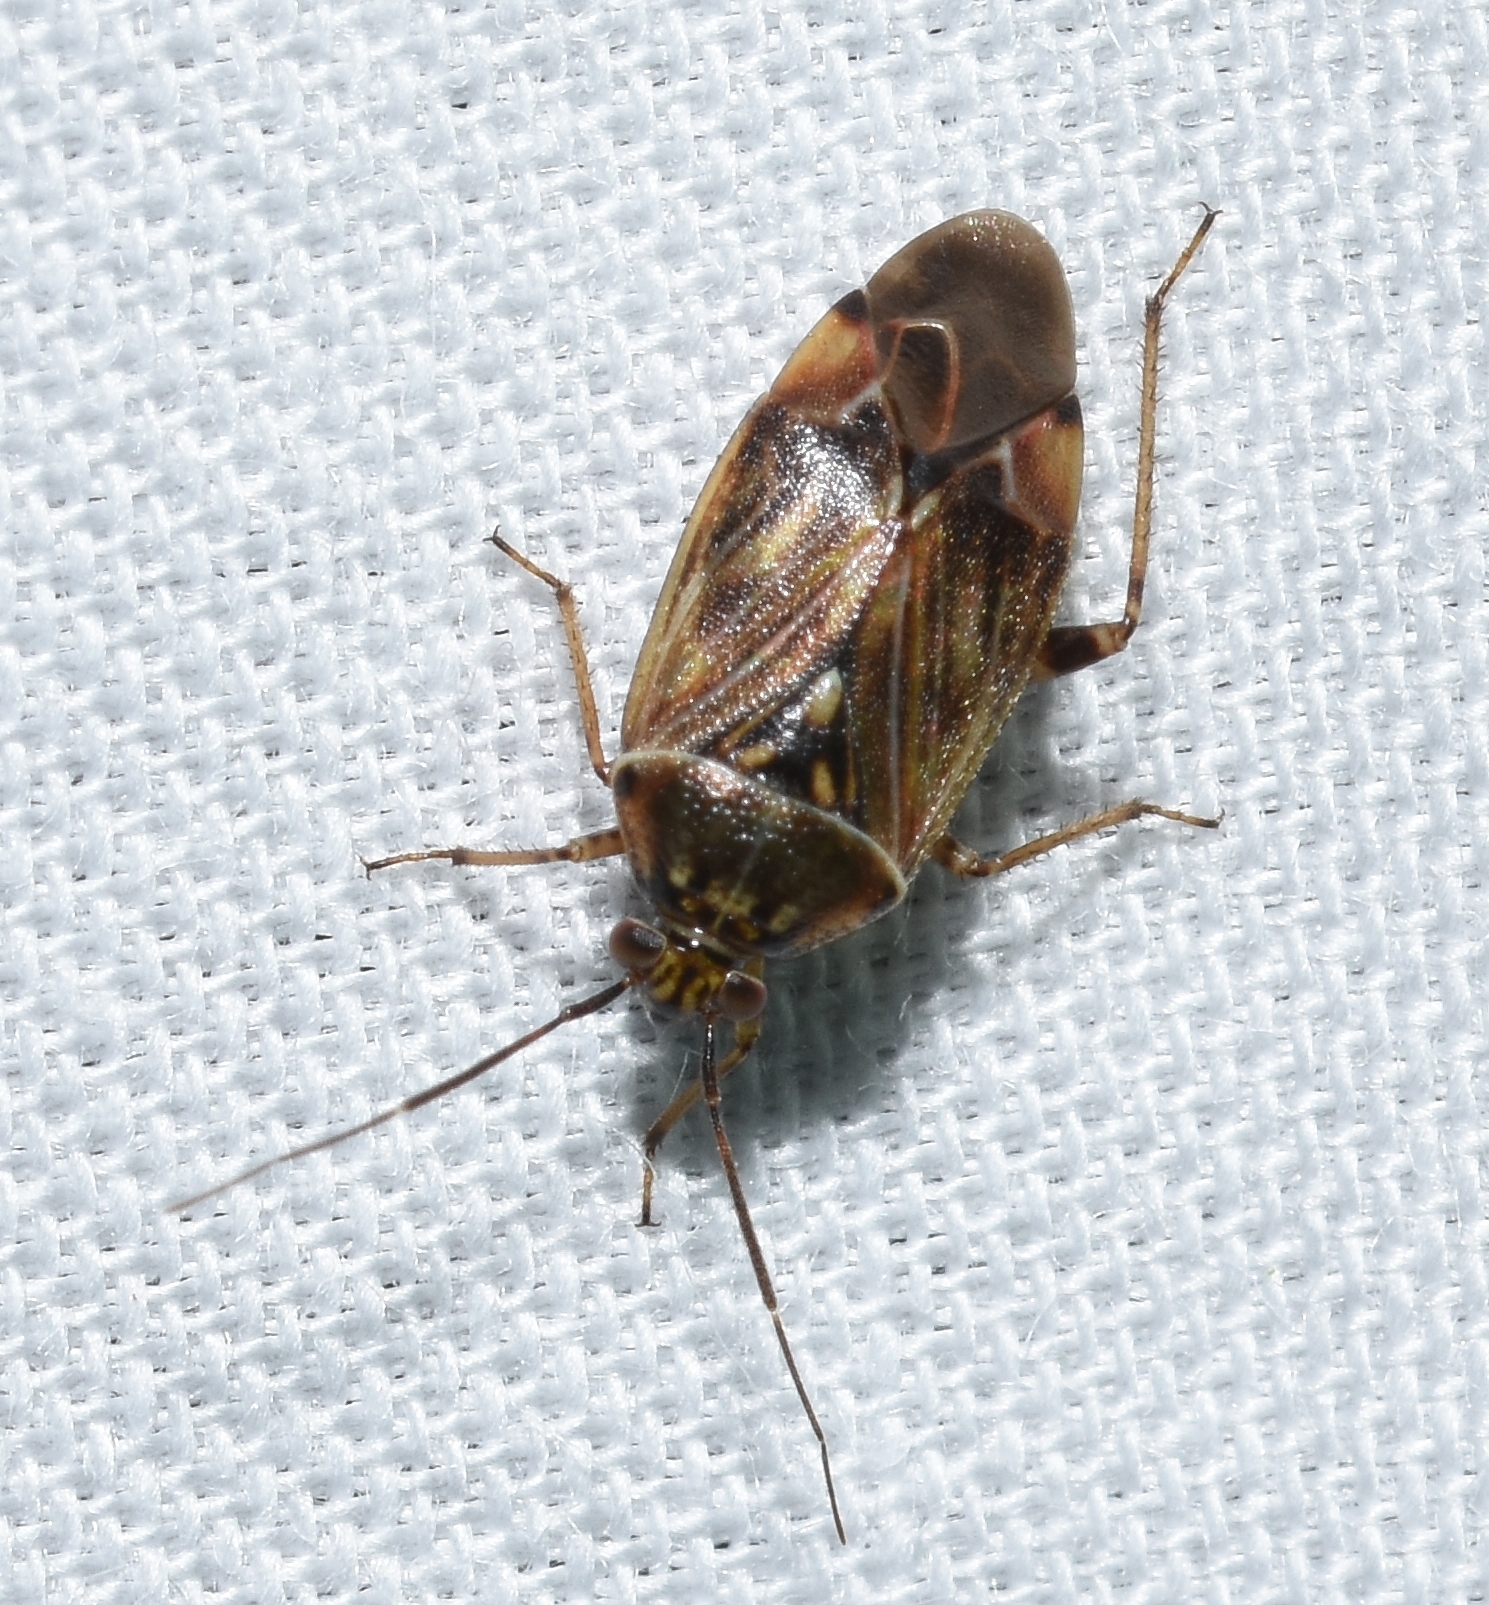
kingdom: Animalia
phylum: Arthropoda
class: Insecta
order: Hemiptera
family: Miridae
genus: Lygus
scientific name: Lygus lineolaris
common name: North american tarnished plant bug
